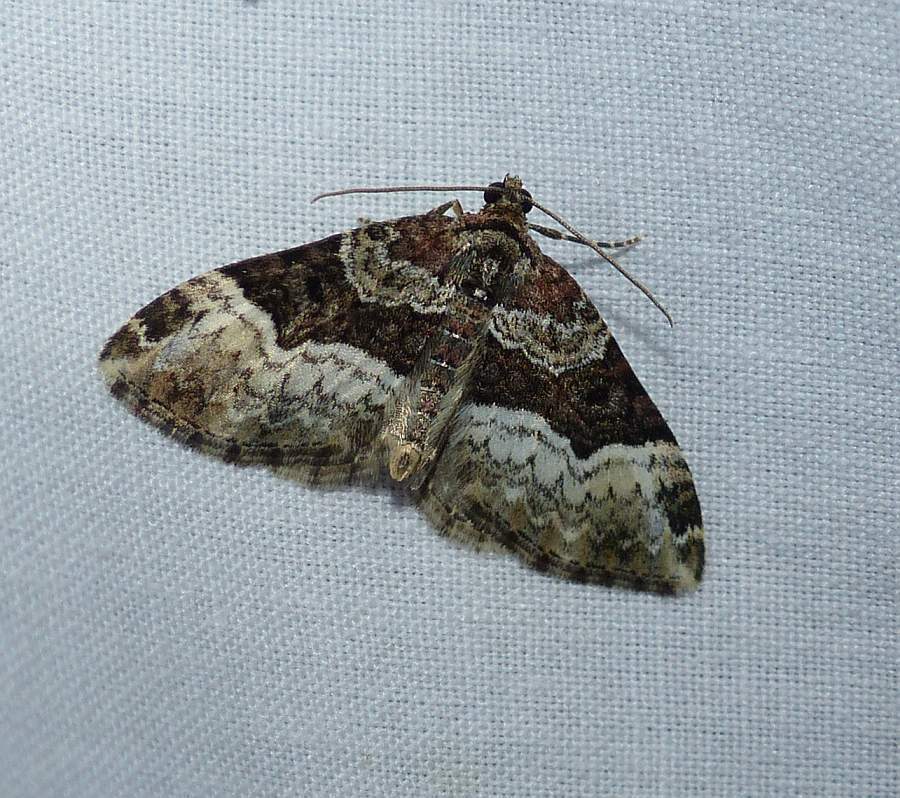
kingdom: Animalia
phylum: Arthropoda
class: Insecta
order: Lepidoptera
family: Geometridae
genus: Euphyia
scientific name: Euphyia intermediata
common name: Sharp-angled carpet
